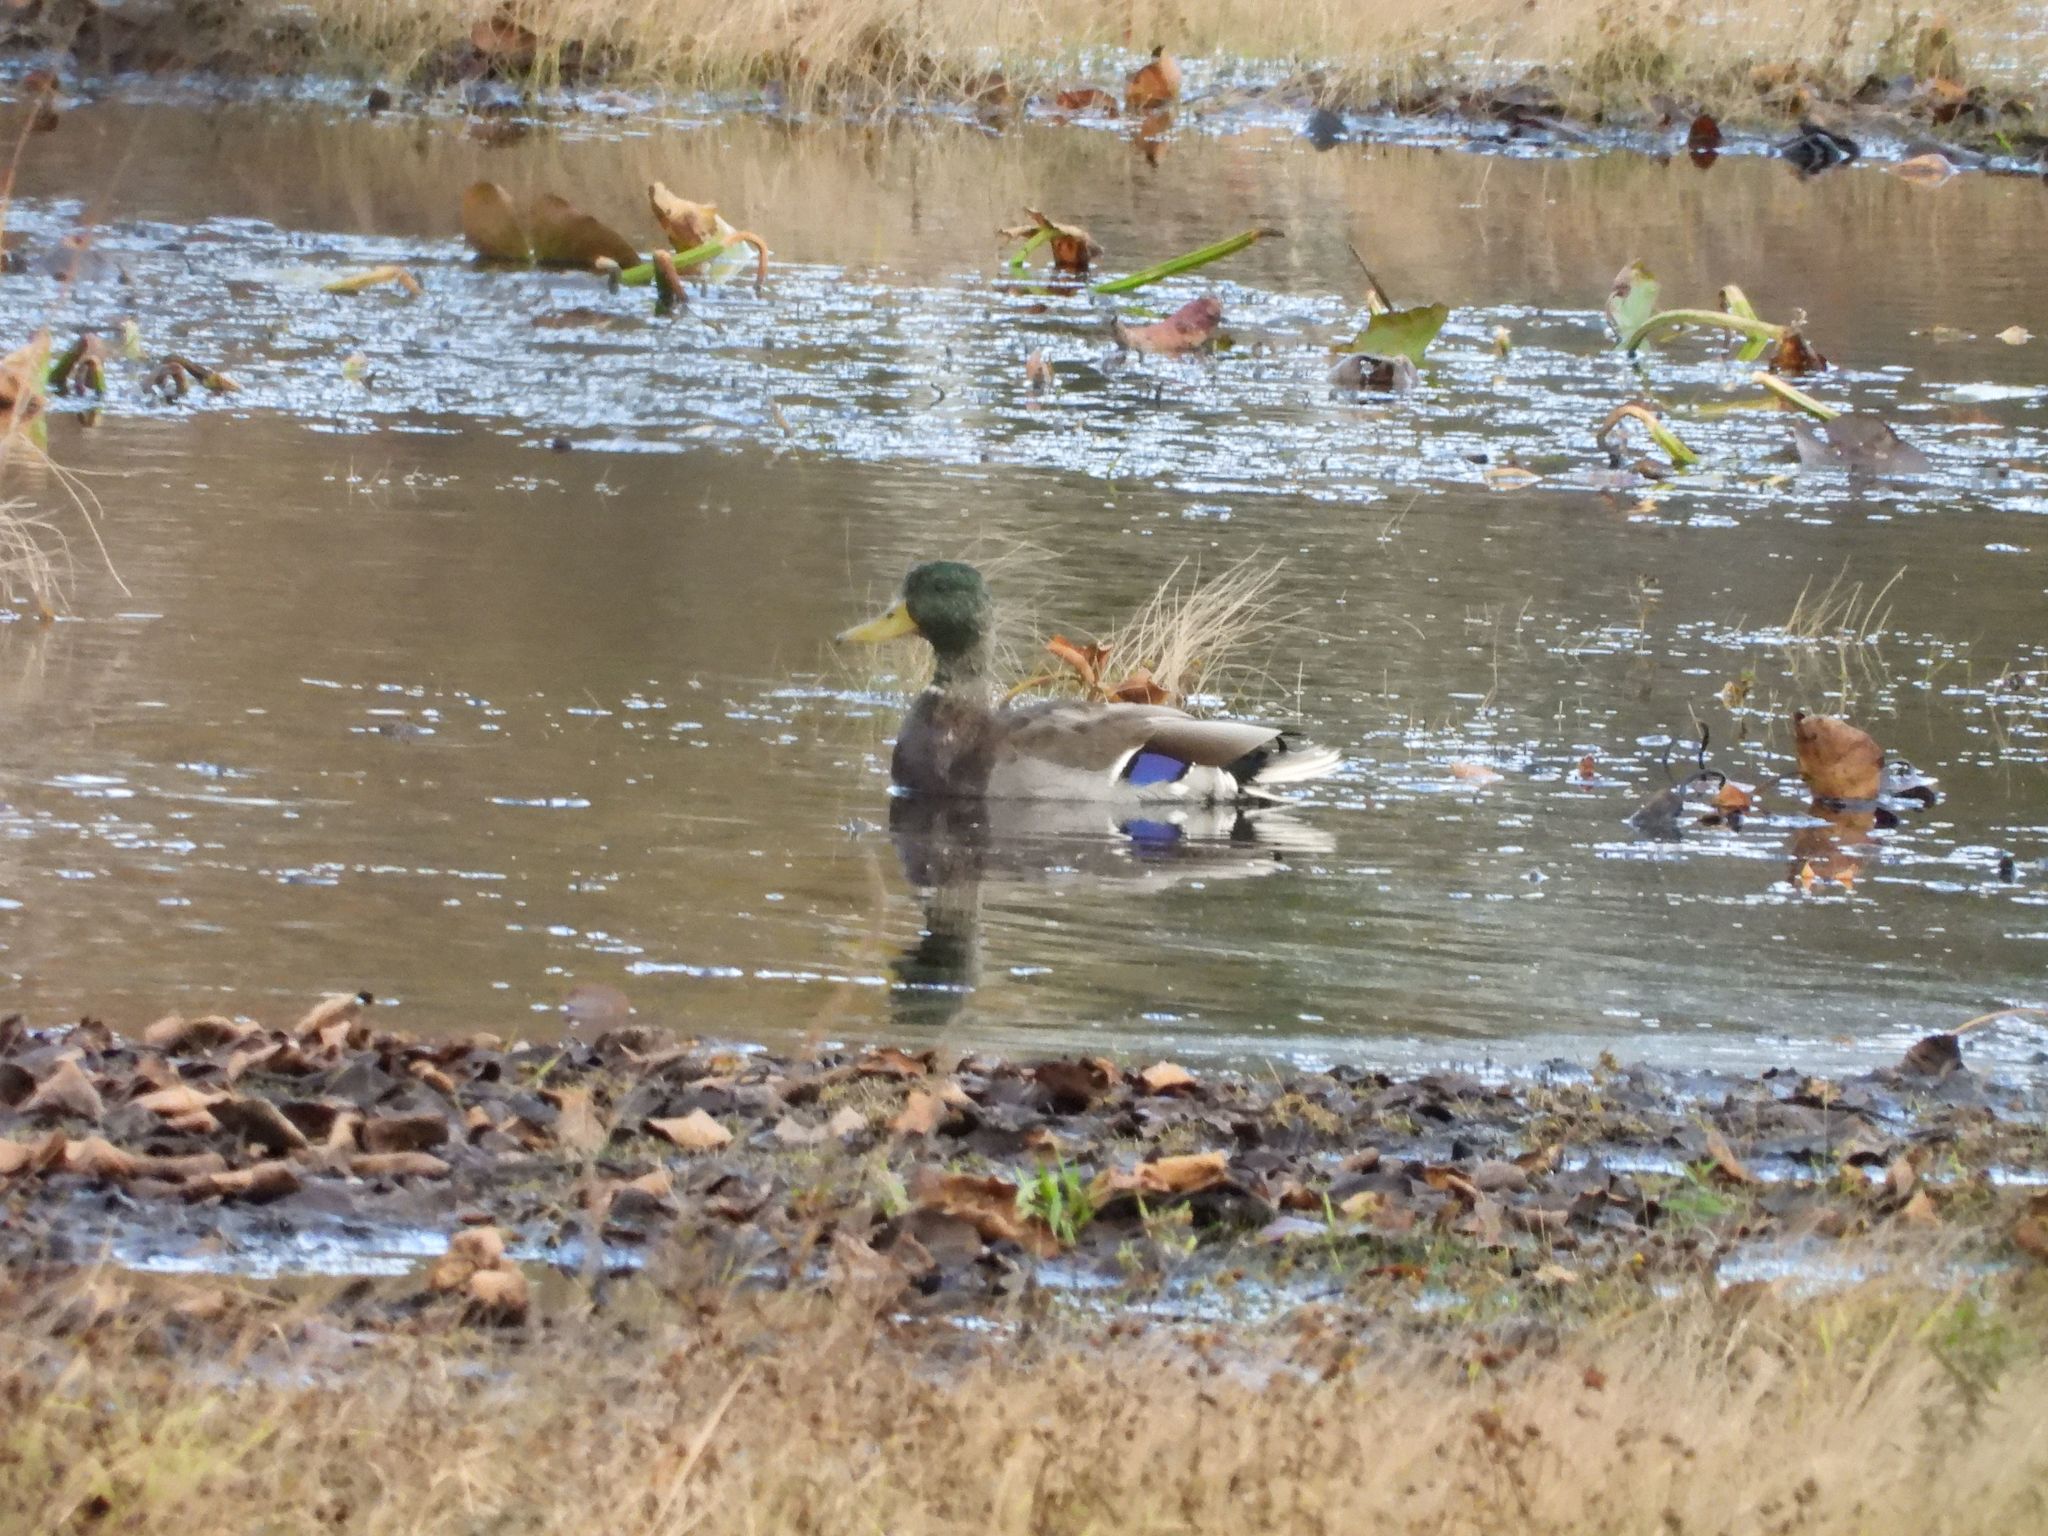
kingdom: Animalia
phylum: Chordata
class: Aves
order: Anseriformes
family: Anatidae
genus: Anas
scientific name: Anas platyrhynchos
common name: Mallard
